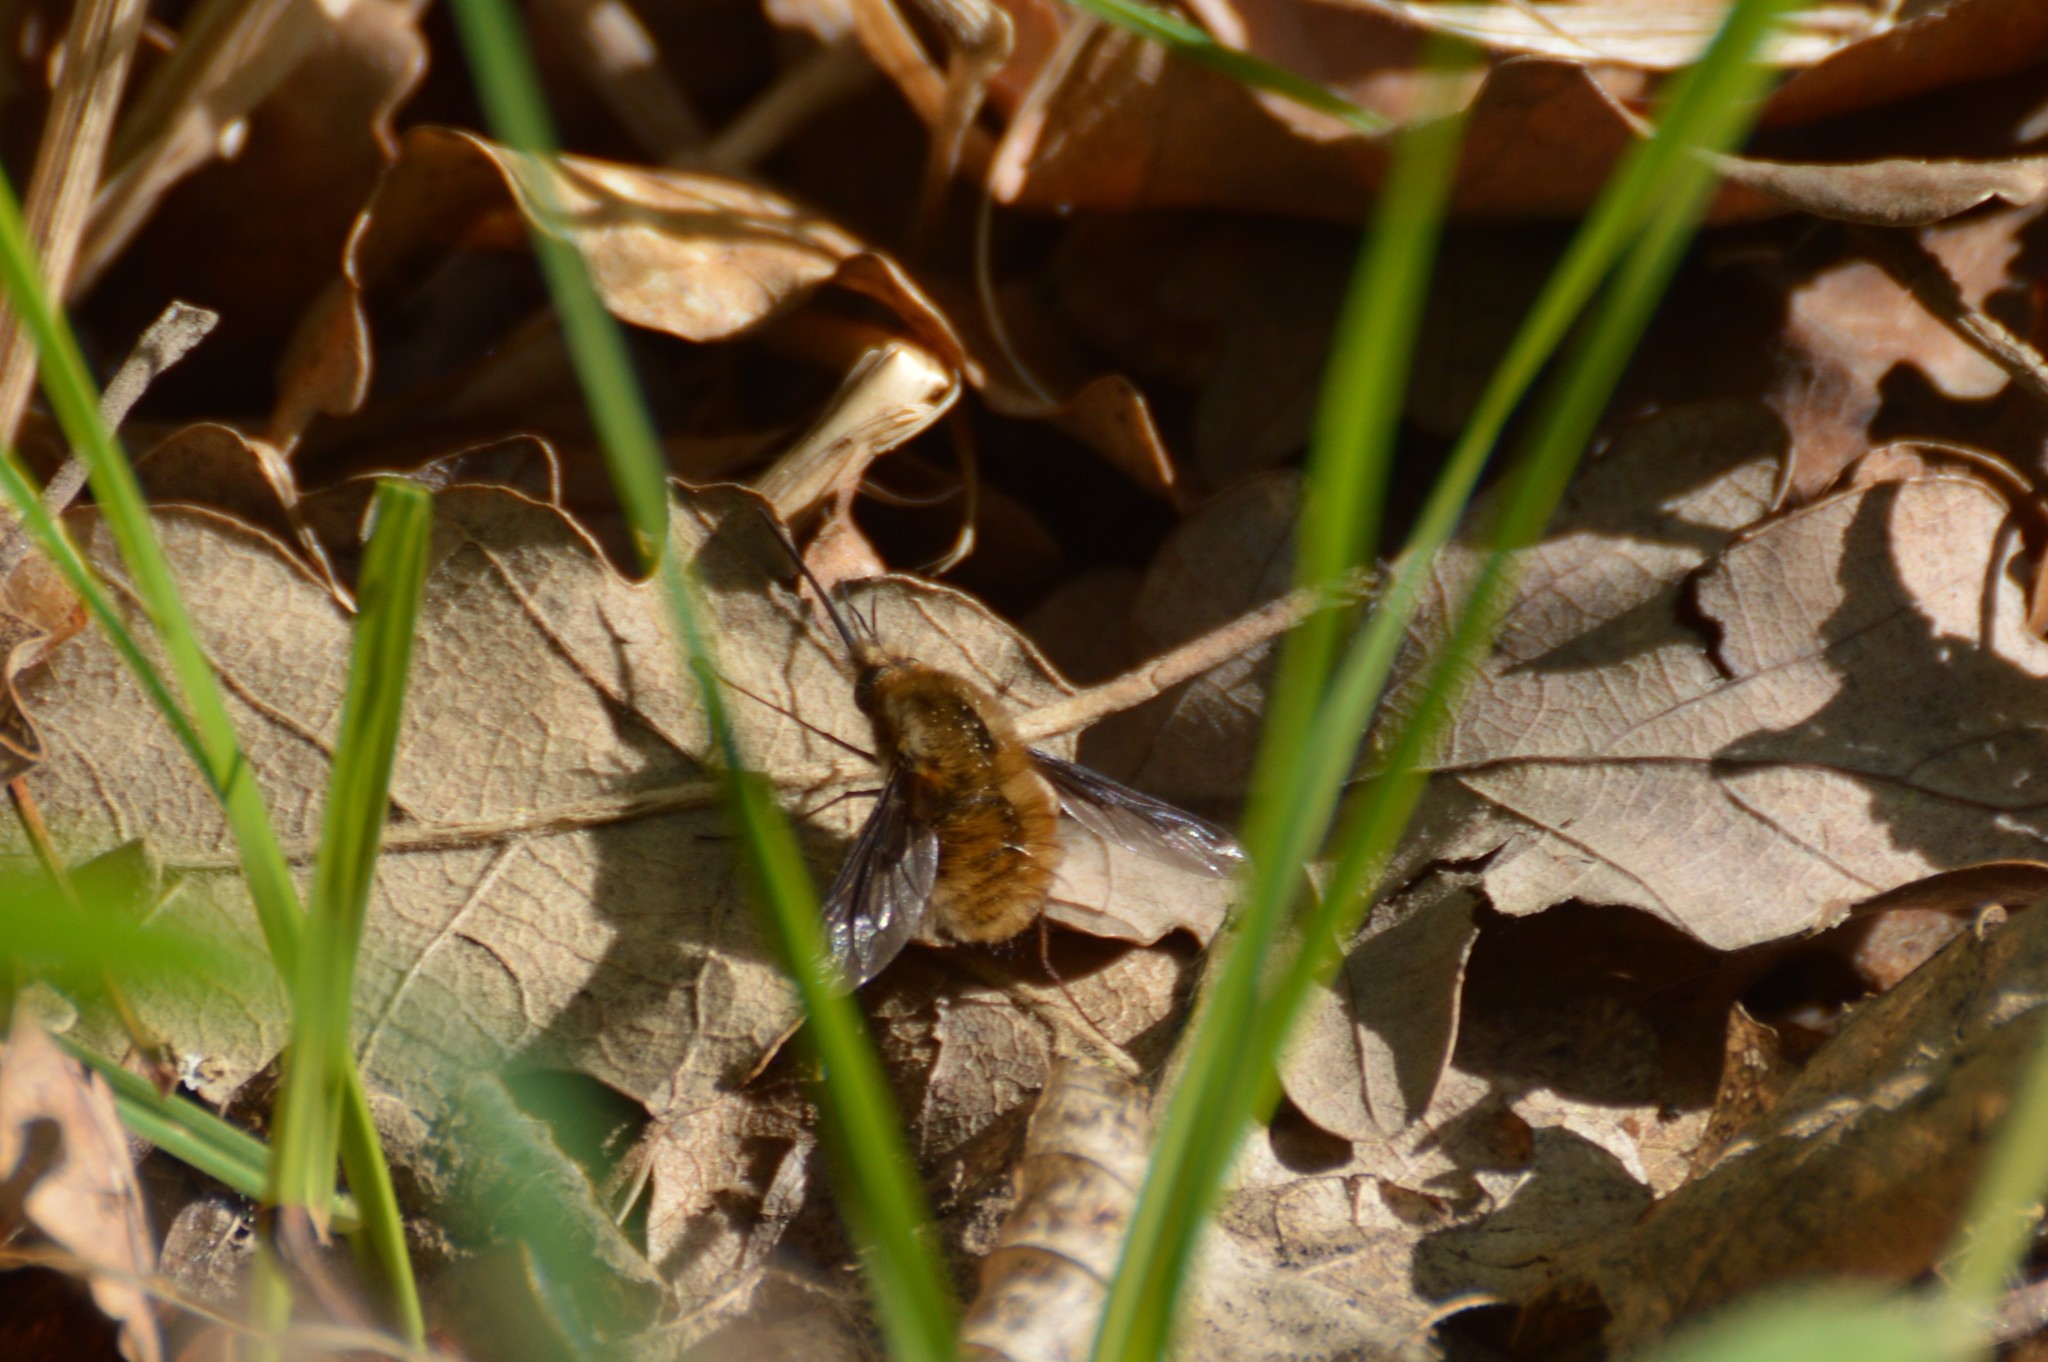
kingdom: Animalia
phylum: Arthropoda
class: Insecta
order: Diptera
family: Bombyliidae
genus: Bombylius
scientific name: Bombylius major
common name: Bee fly
